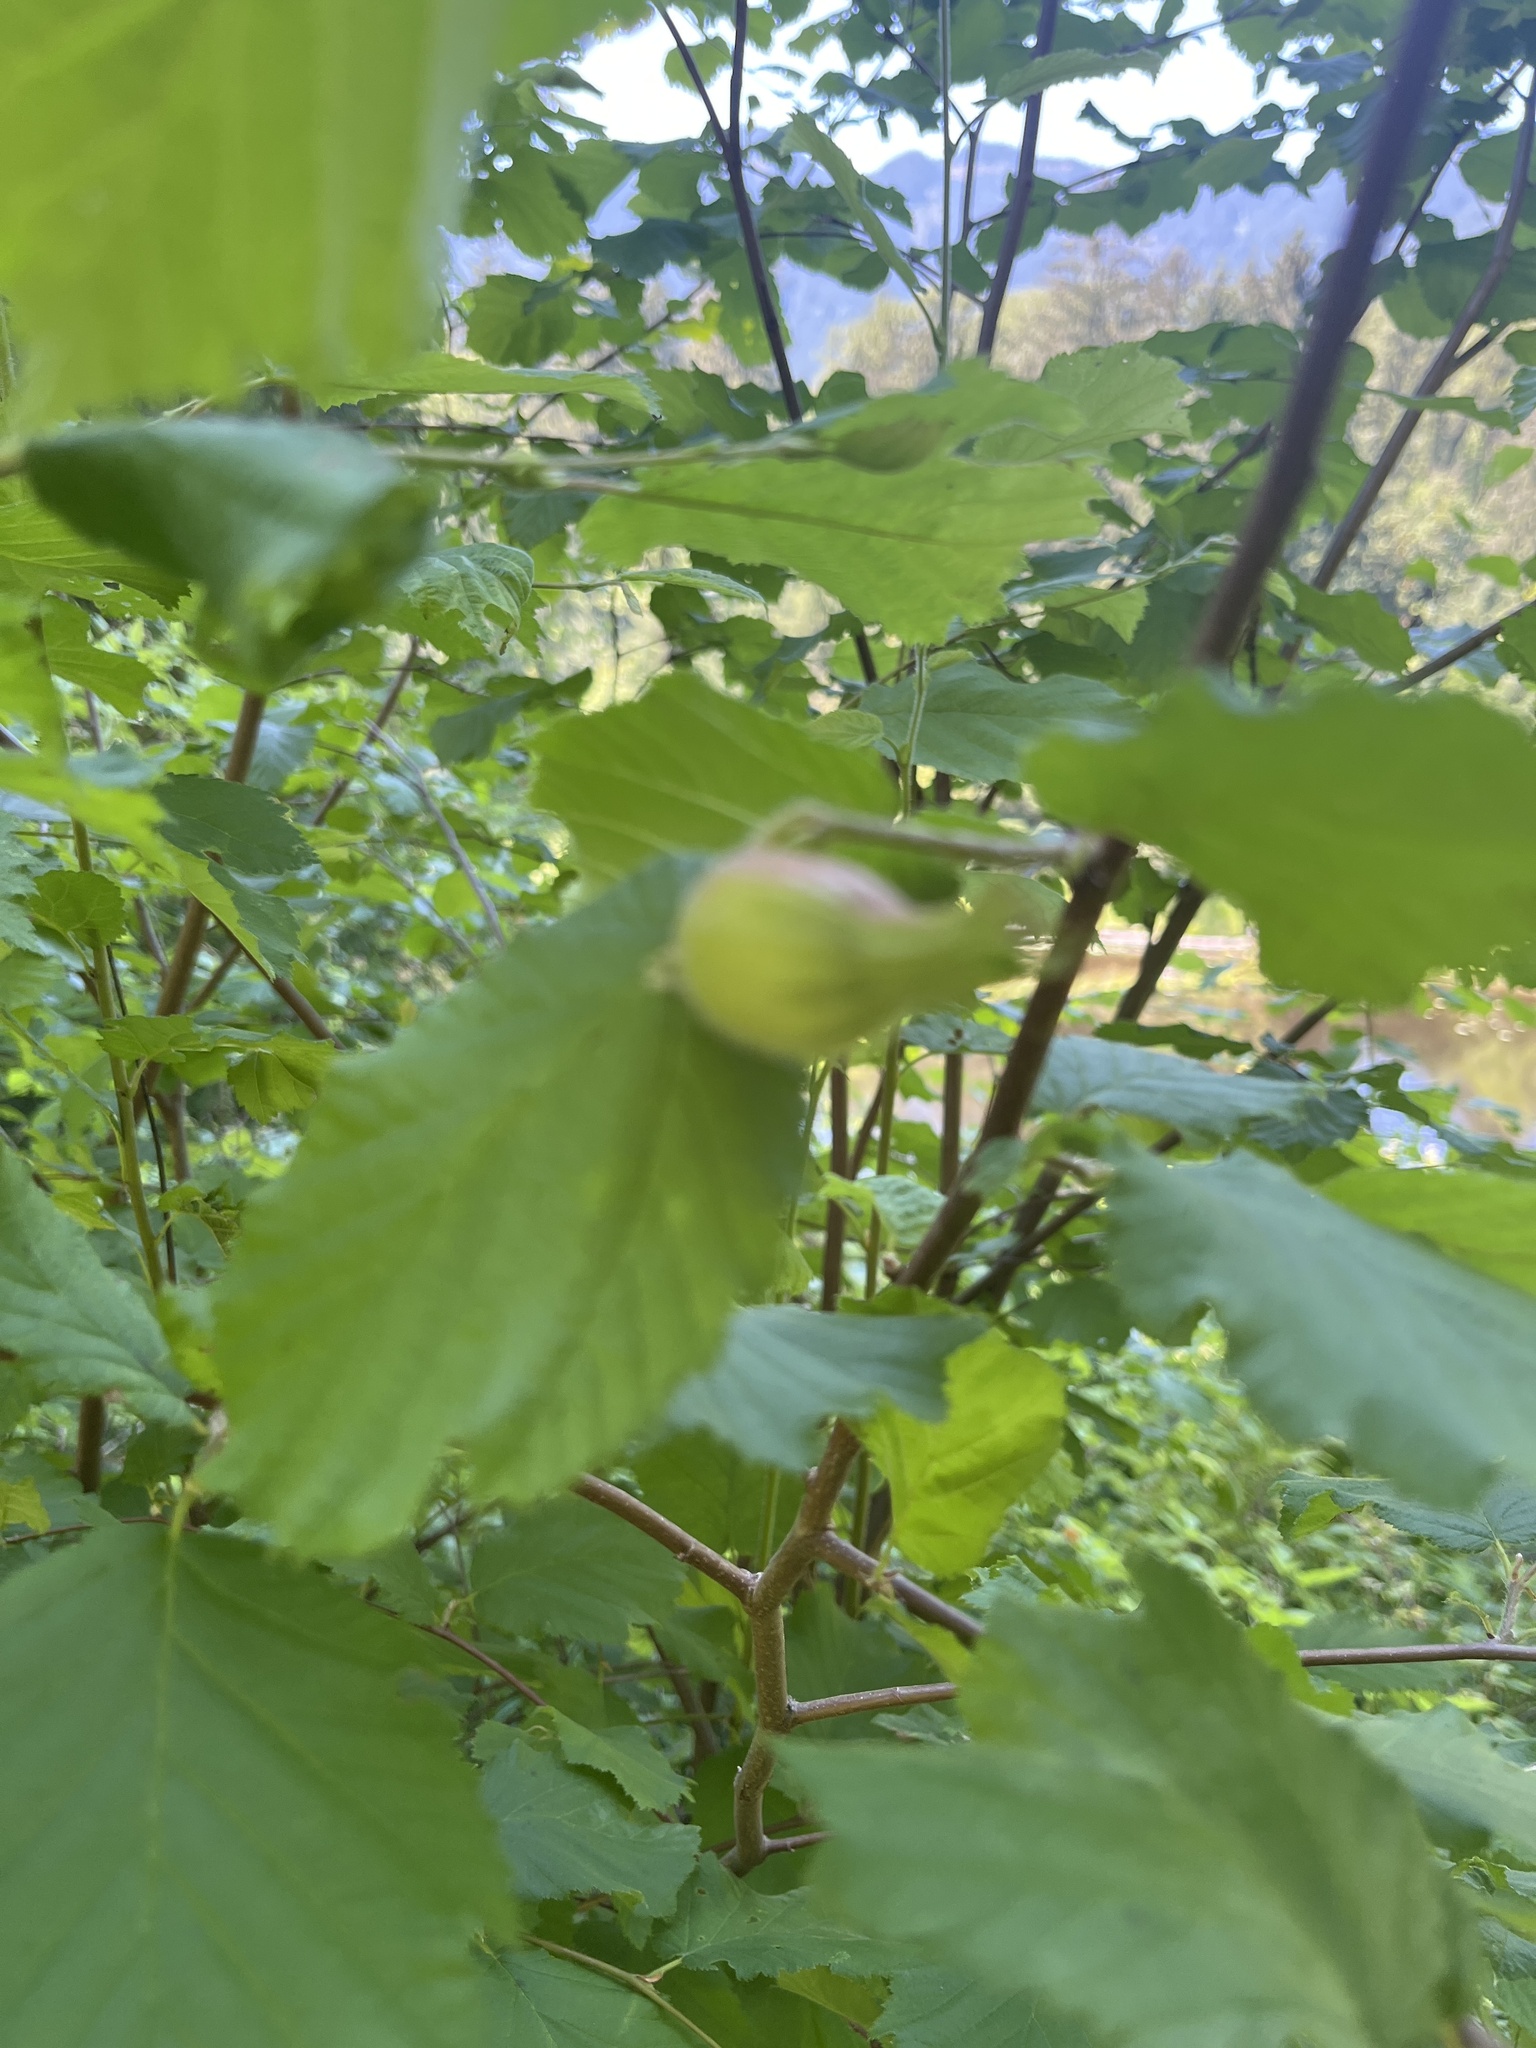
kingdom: Plantae
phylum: Tracheophyta
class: Magnoliopsida
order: Fagales
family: Betulaceae
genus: Corylus
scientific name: Corylus cornuta
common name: Beaked hazel
